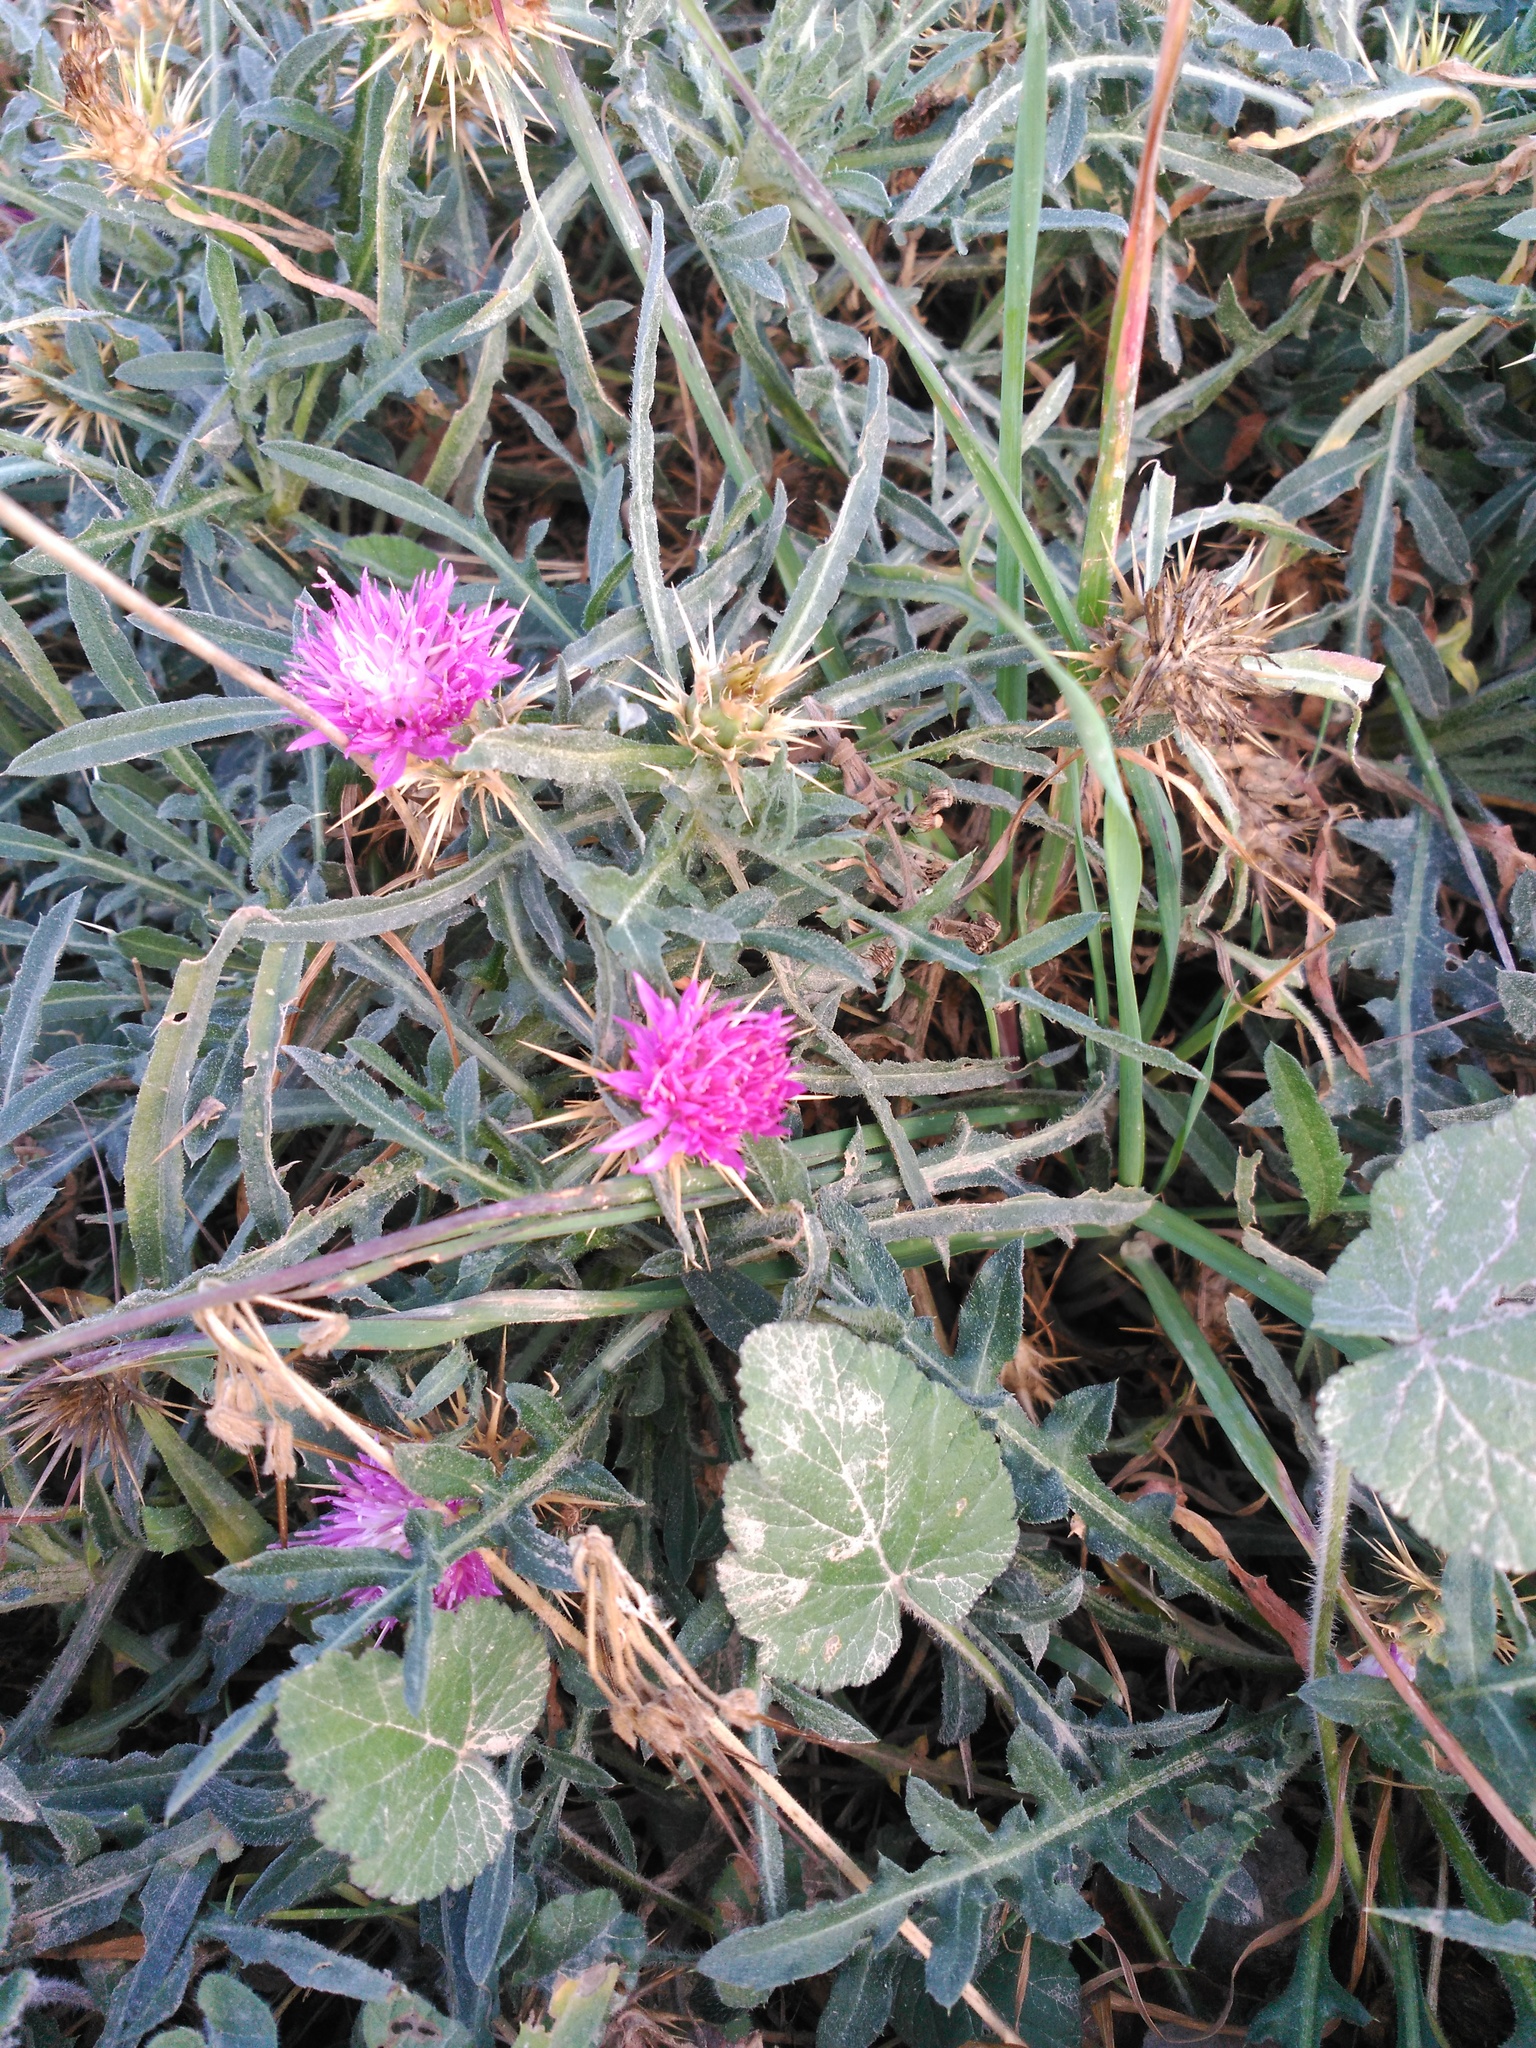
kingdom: Plantae
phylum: Tracheophyta
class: Magnoliopsida
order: Asterales
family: Asteraceae
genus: Centaurea
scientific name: Centaurea calcitrapa
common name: Red star-thistle
